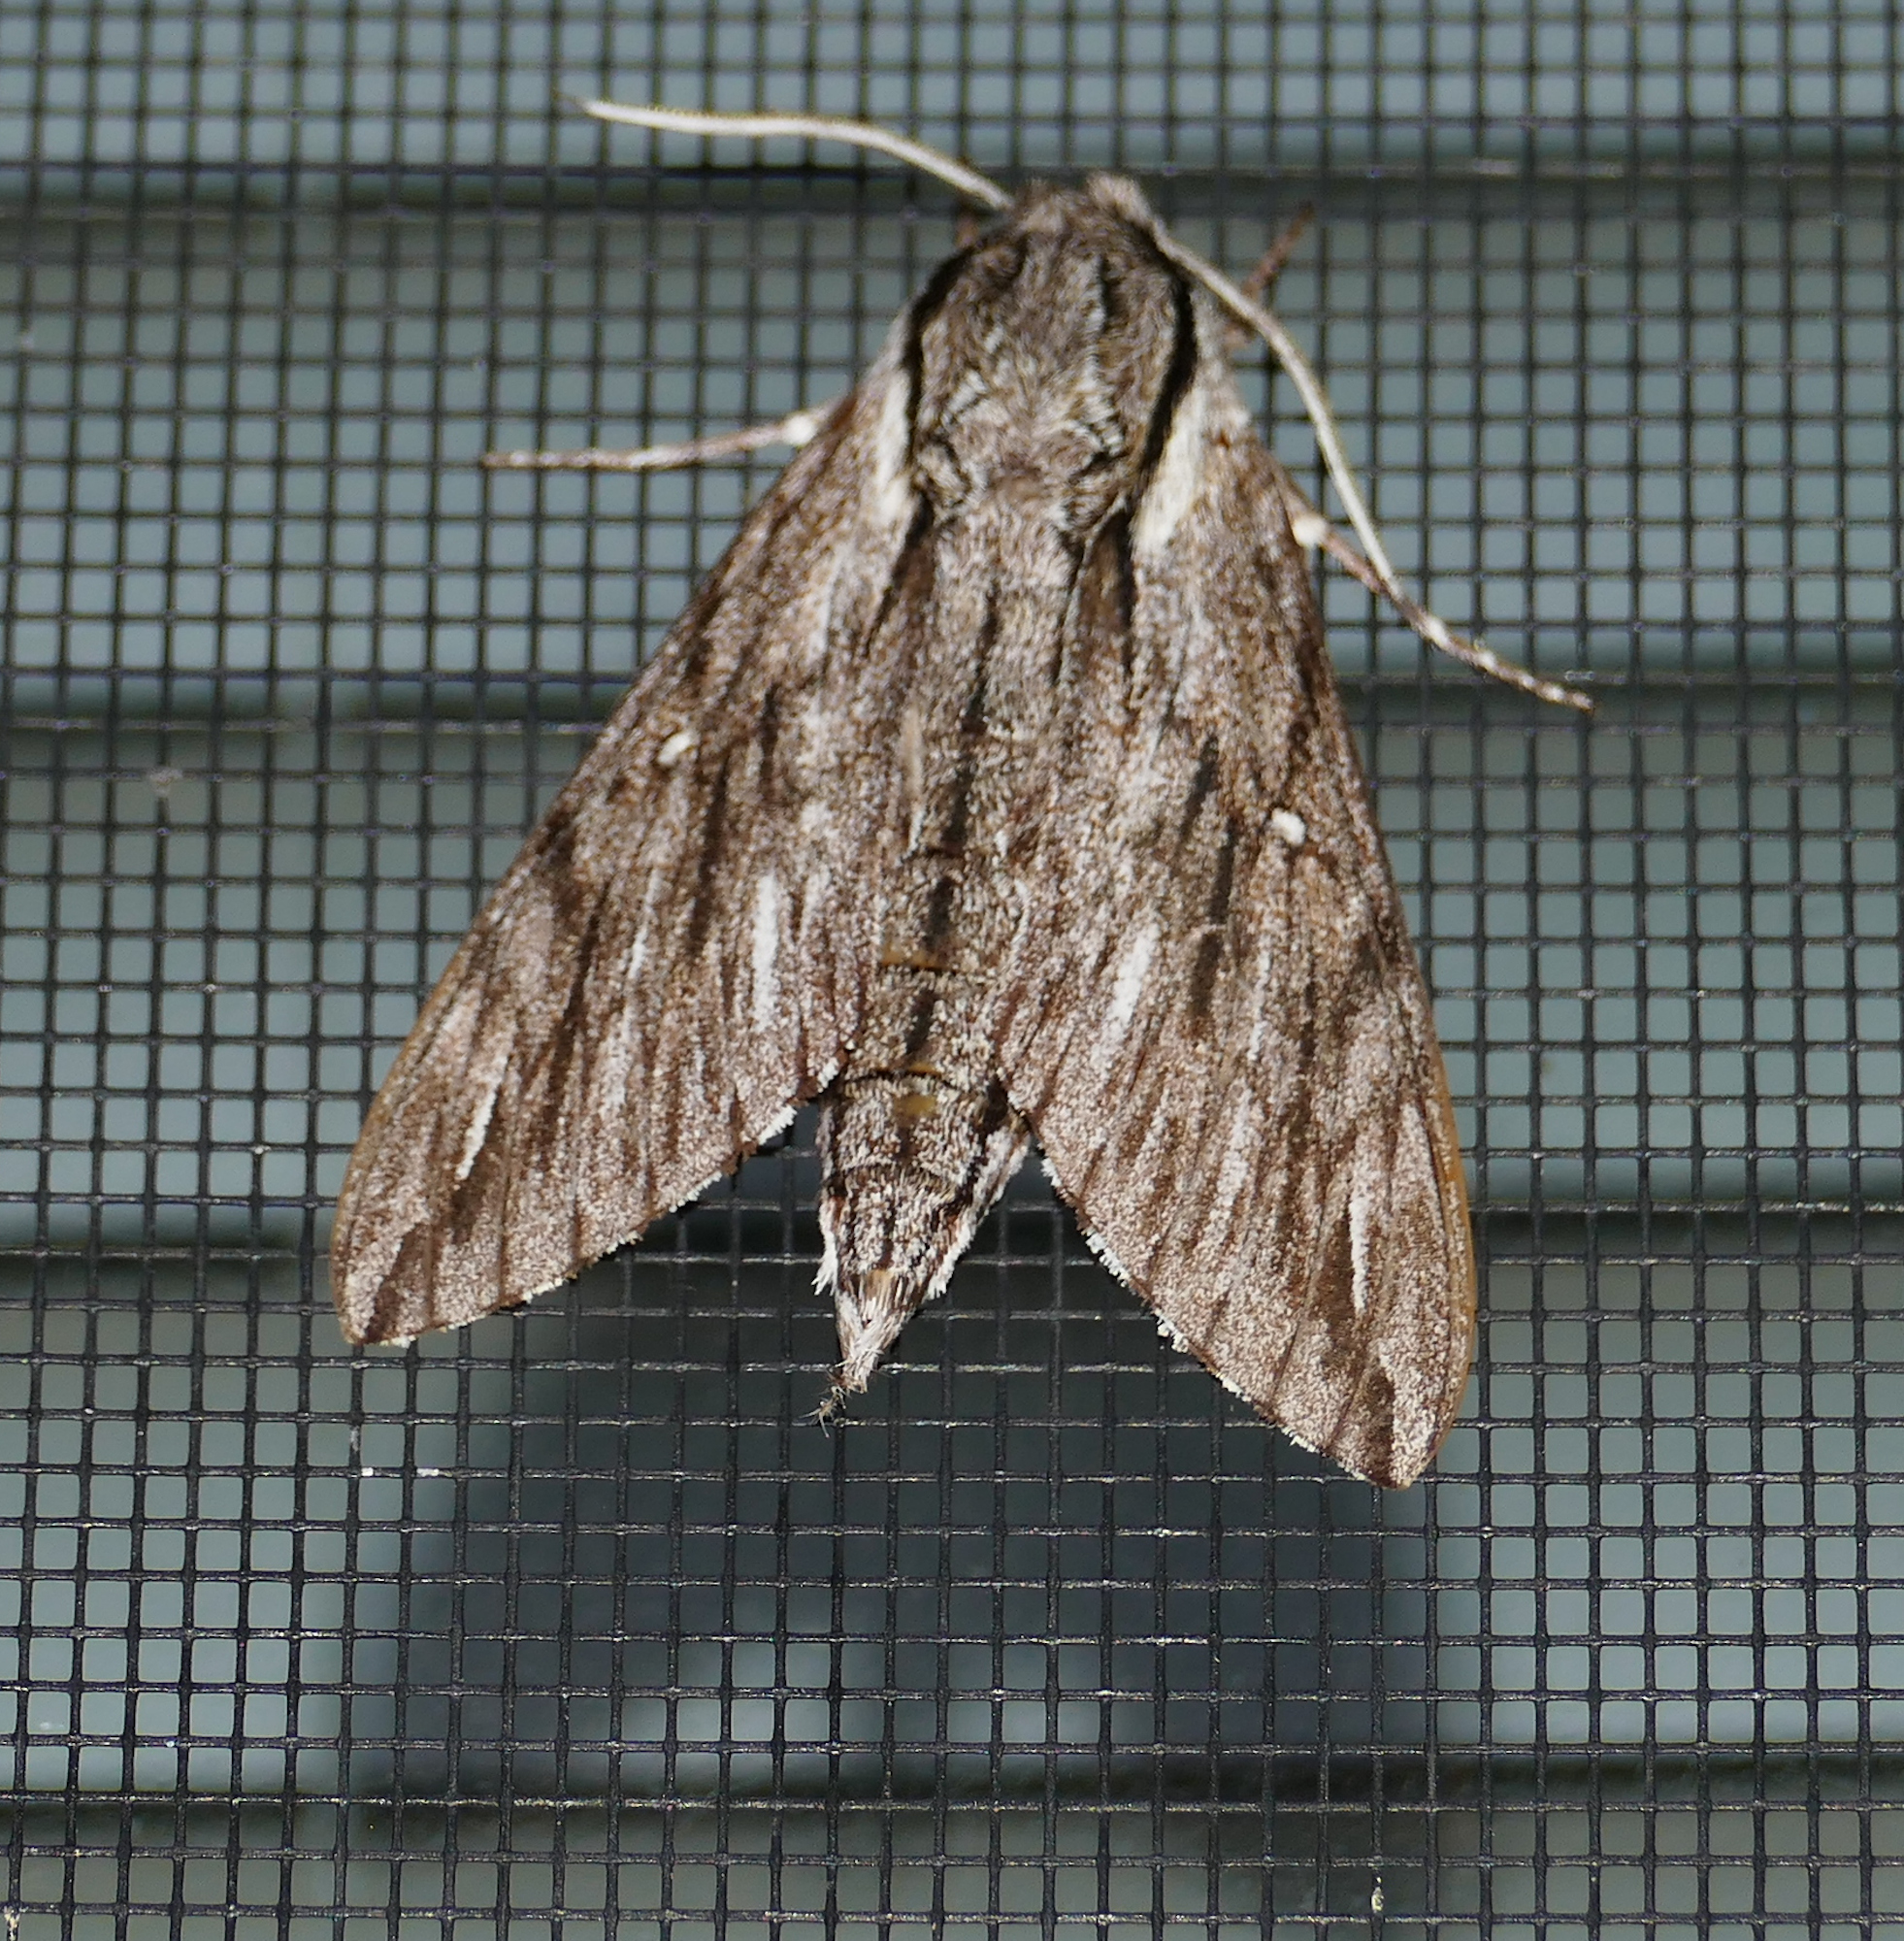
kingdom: Animalia
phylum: Arthropoda
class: Insecta
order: Lepidoptera
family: Sphingidae
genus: Paratrea
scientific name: Paratrea plebeja
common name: Plebian sphinx
